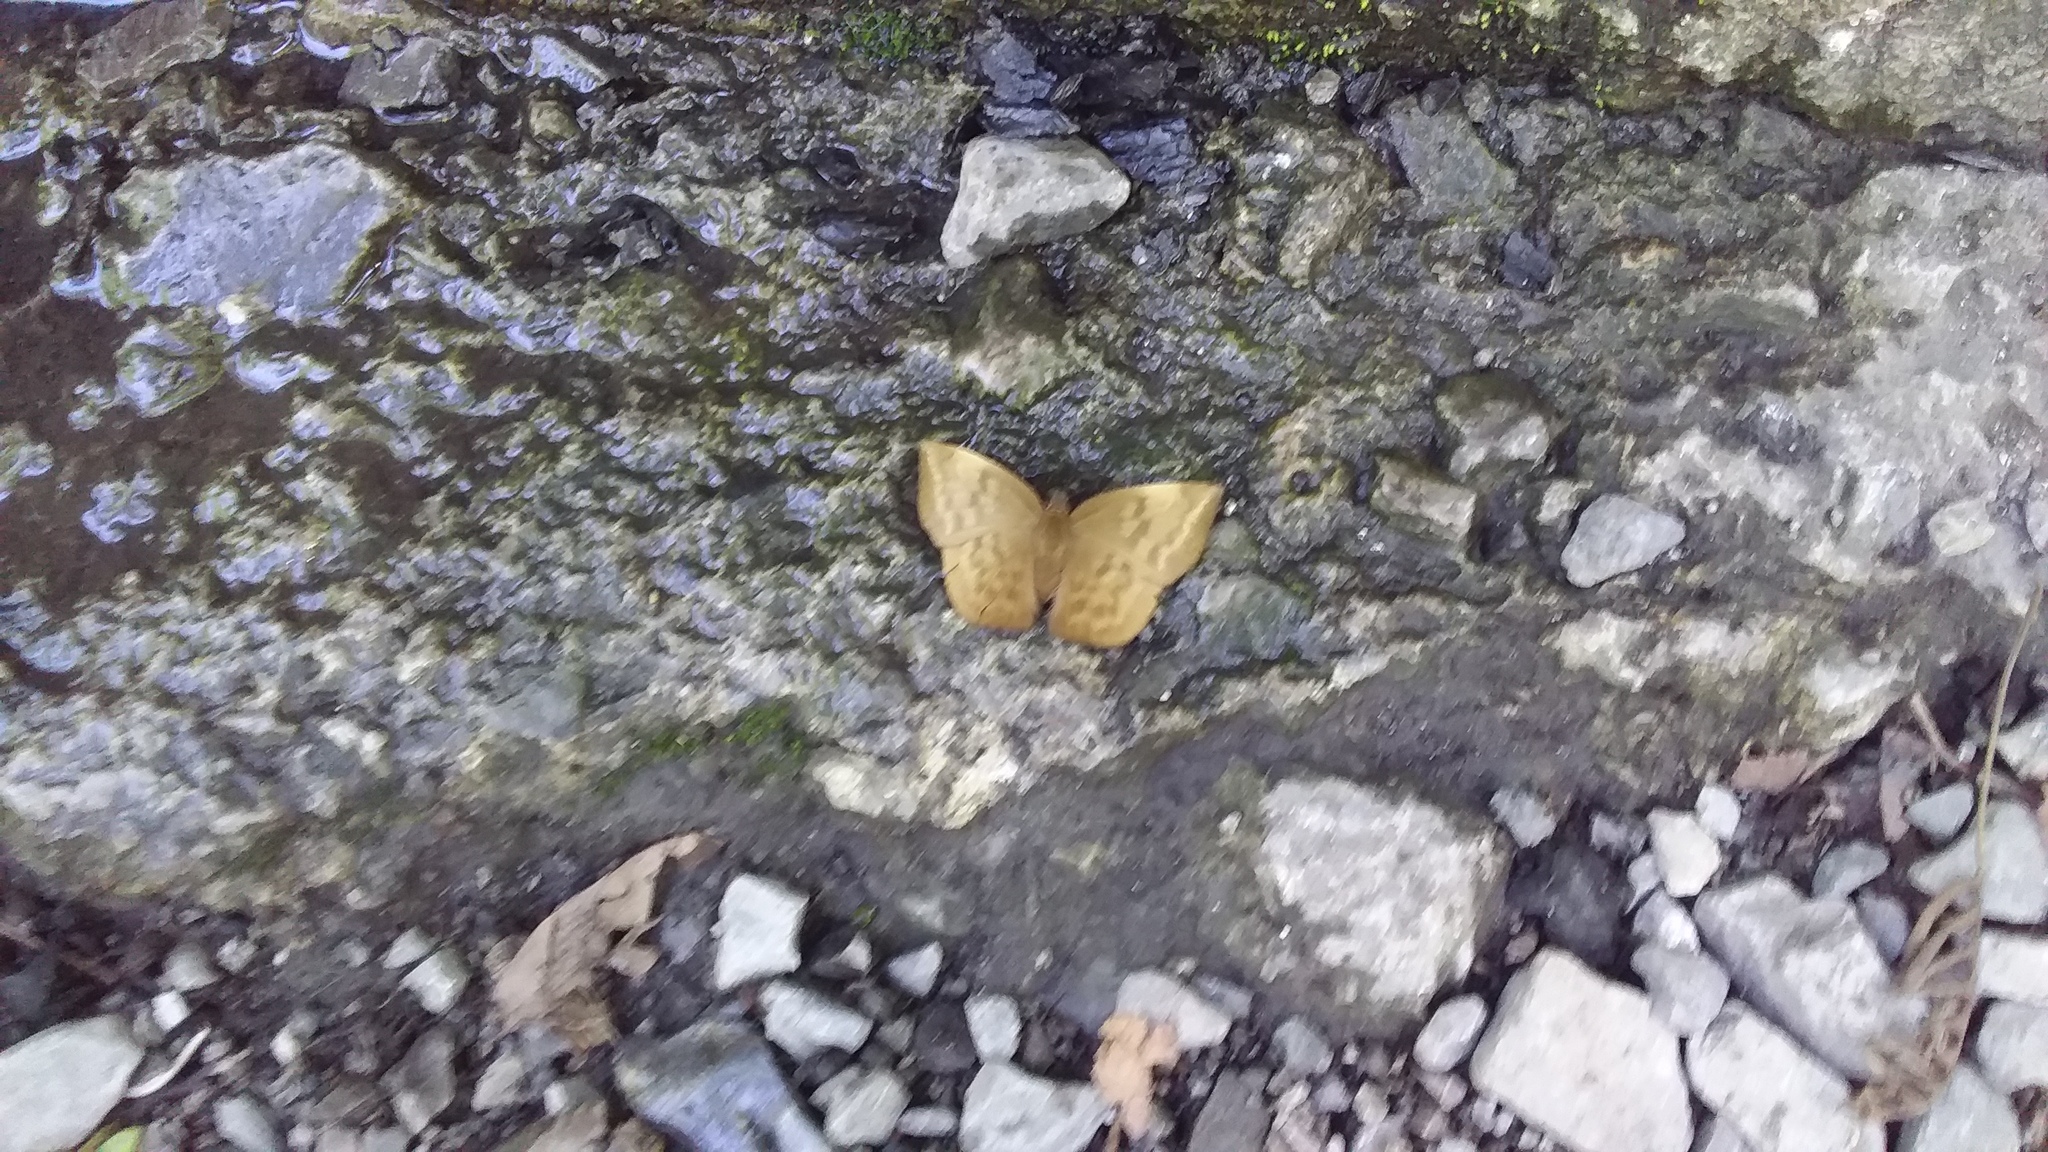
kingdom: Animalia
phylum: Arthropoda
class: Insecta
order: Lepidoptera
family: Hesperiidae
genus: Achlyodes
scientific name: Achlyodes pallida
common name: Pale sicklewing
